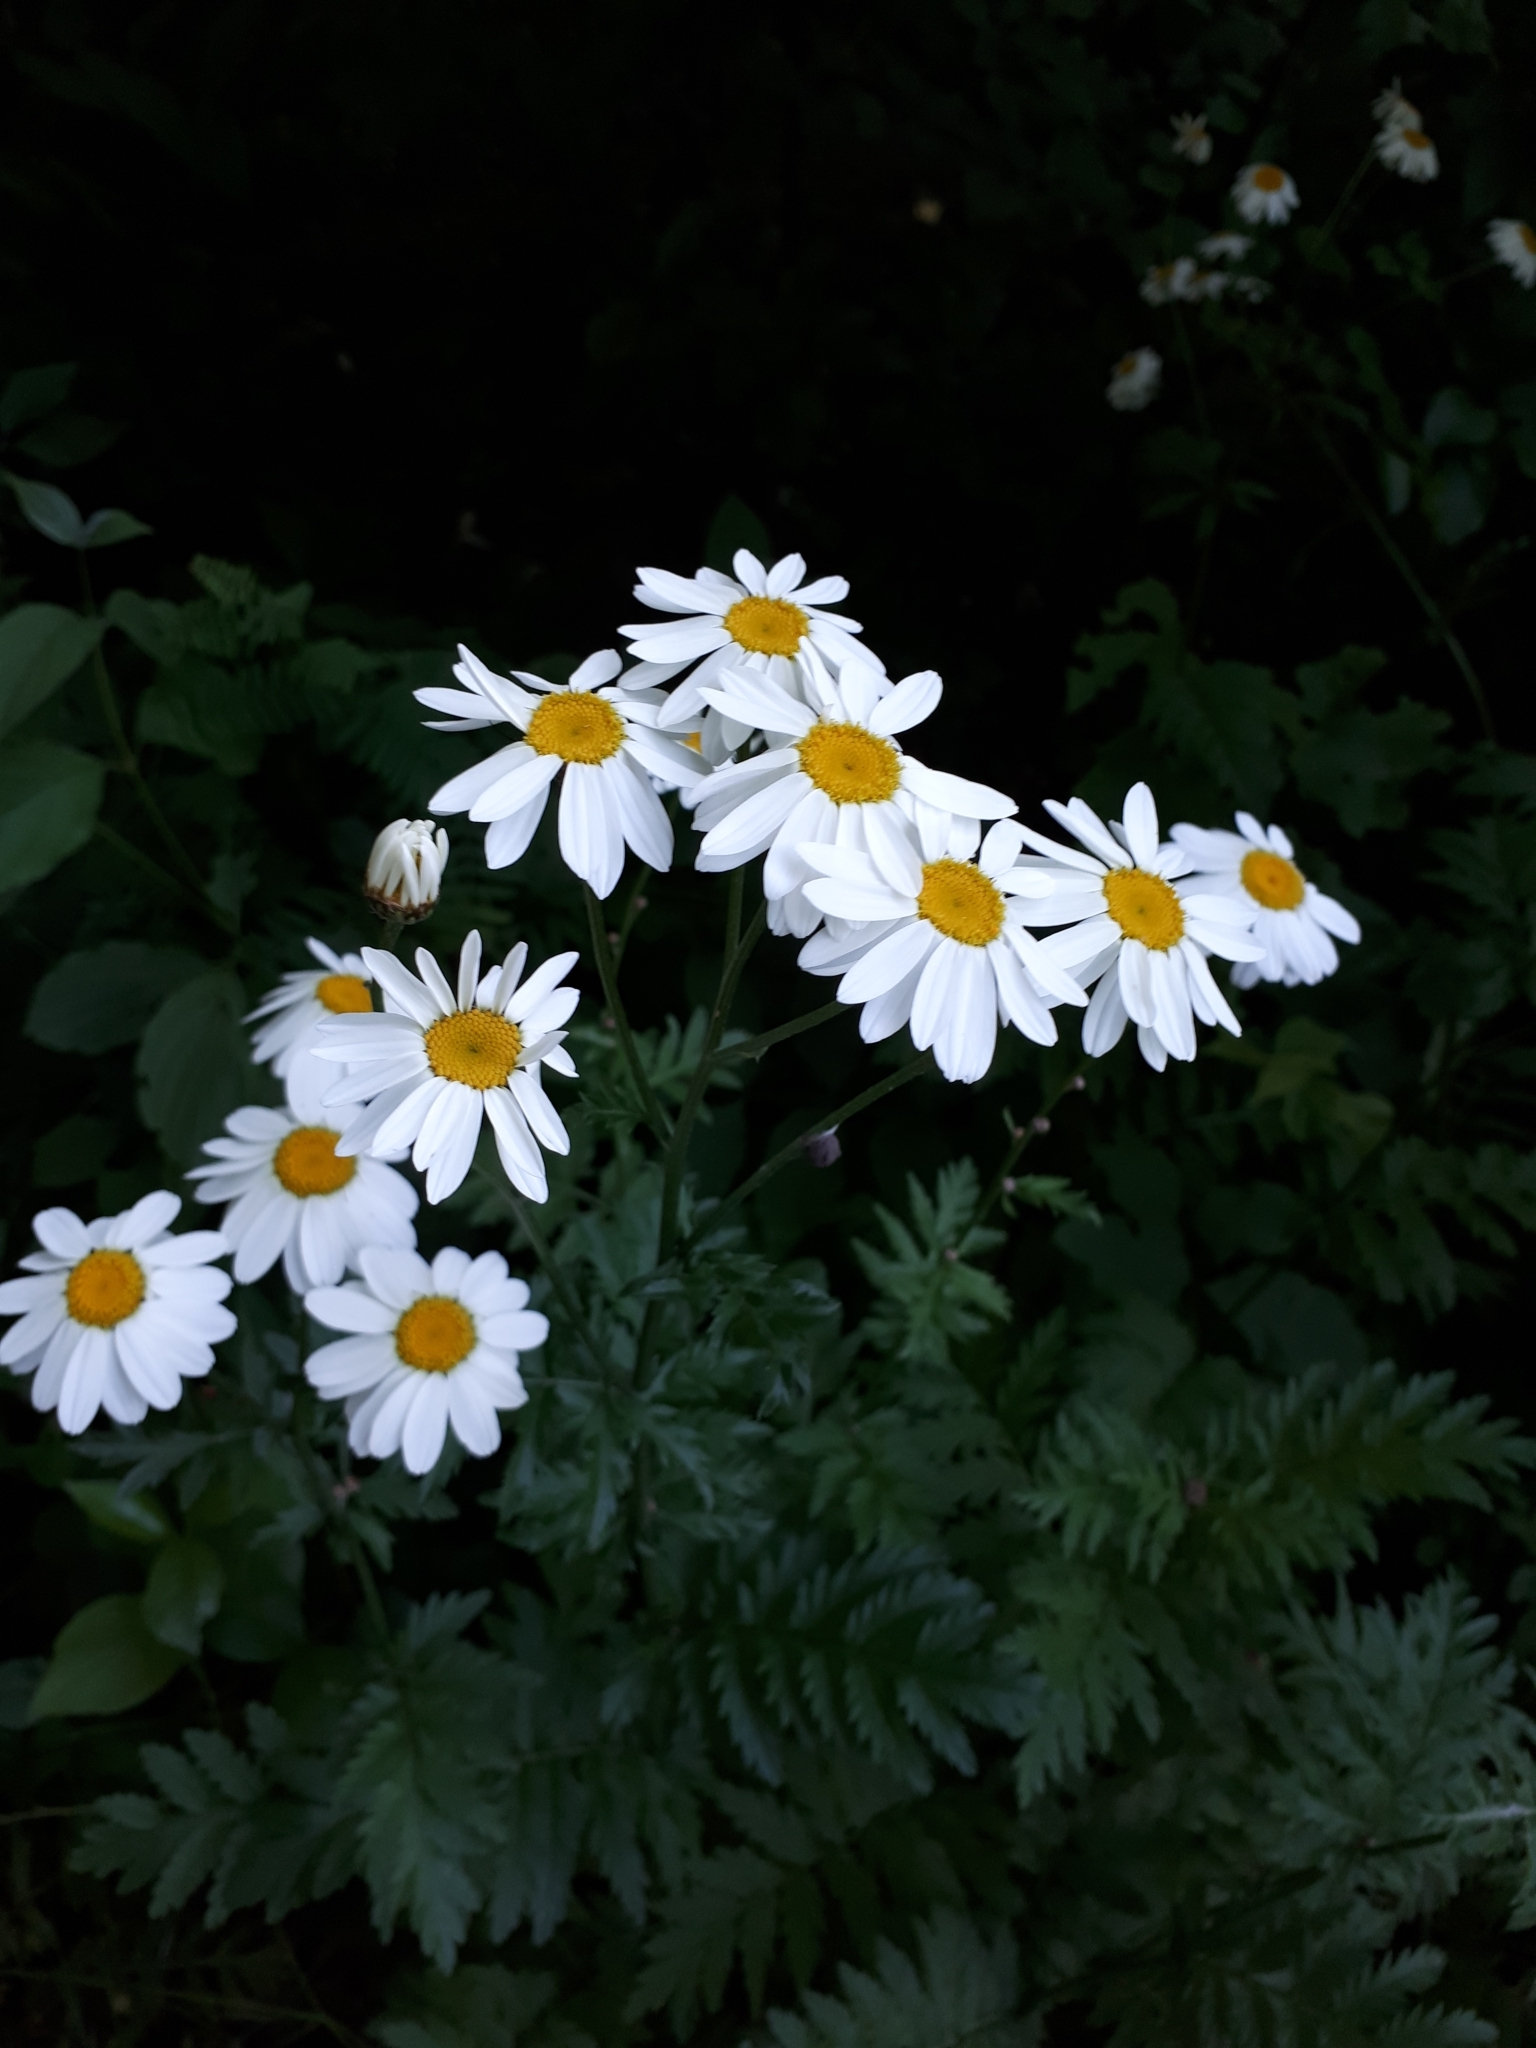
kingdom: Plantae
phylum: Tracheophyta
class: Magnoliopsida
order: Asterales
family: Asteraceae
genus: Tanacetum
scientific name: Tanacetum corymbosum
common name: Scentless feverfew
